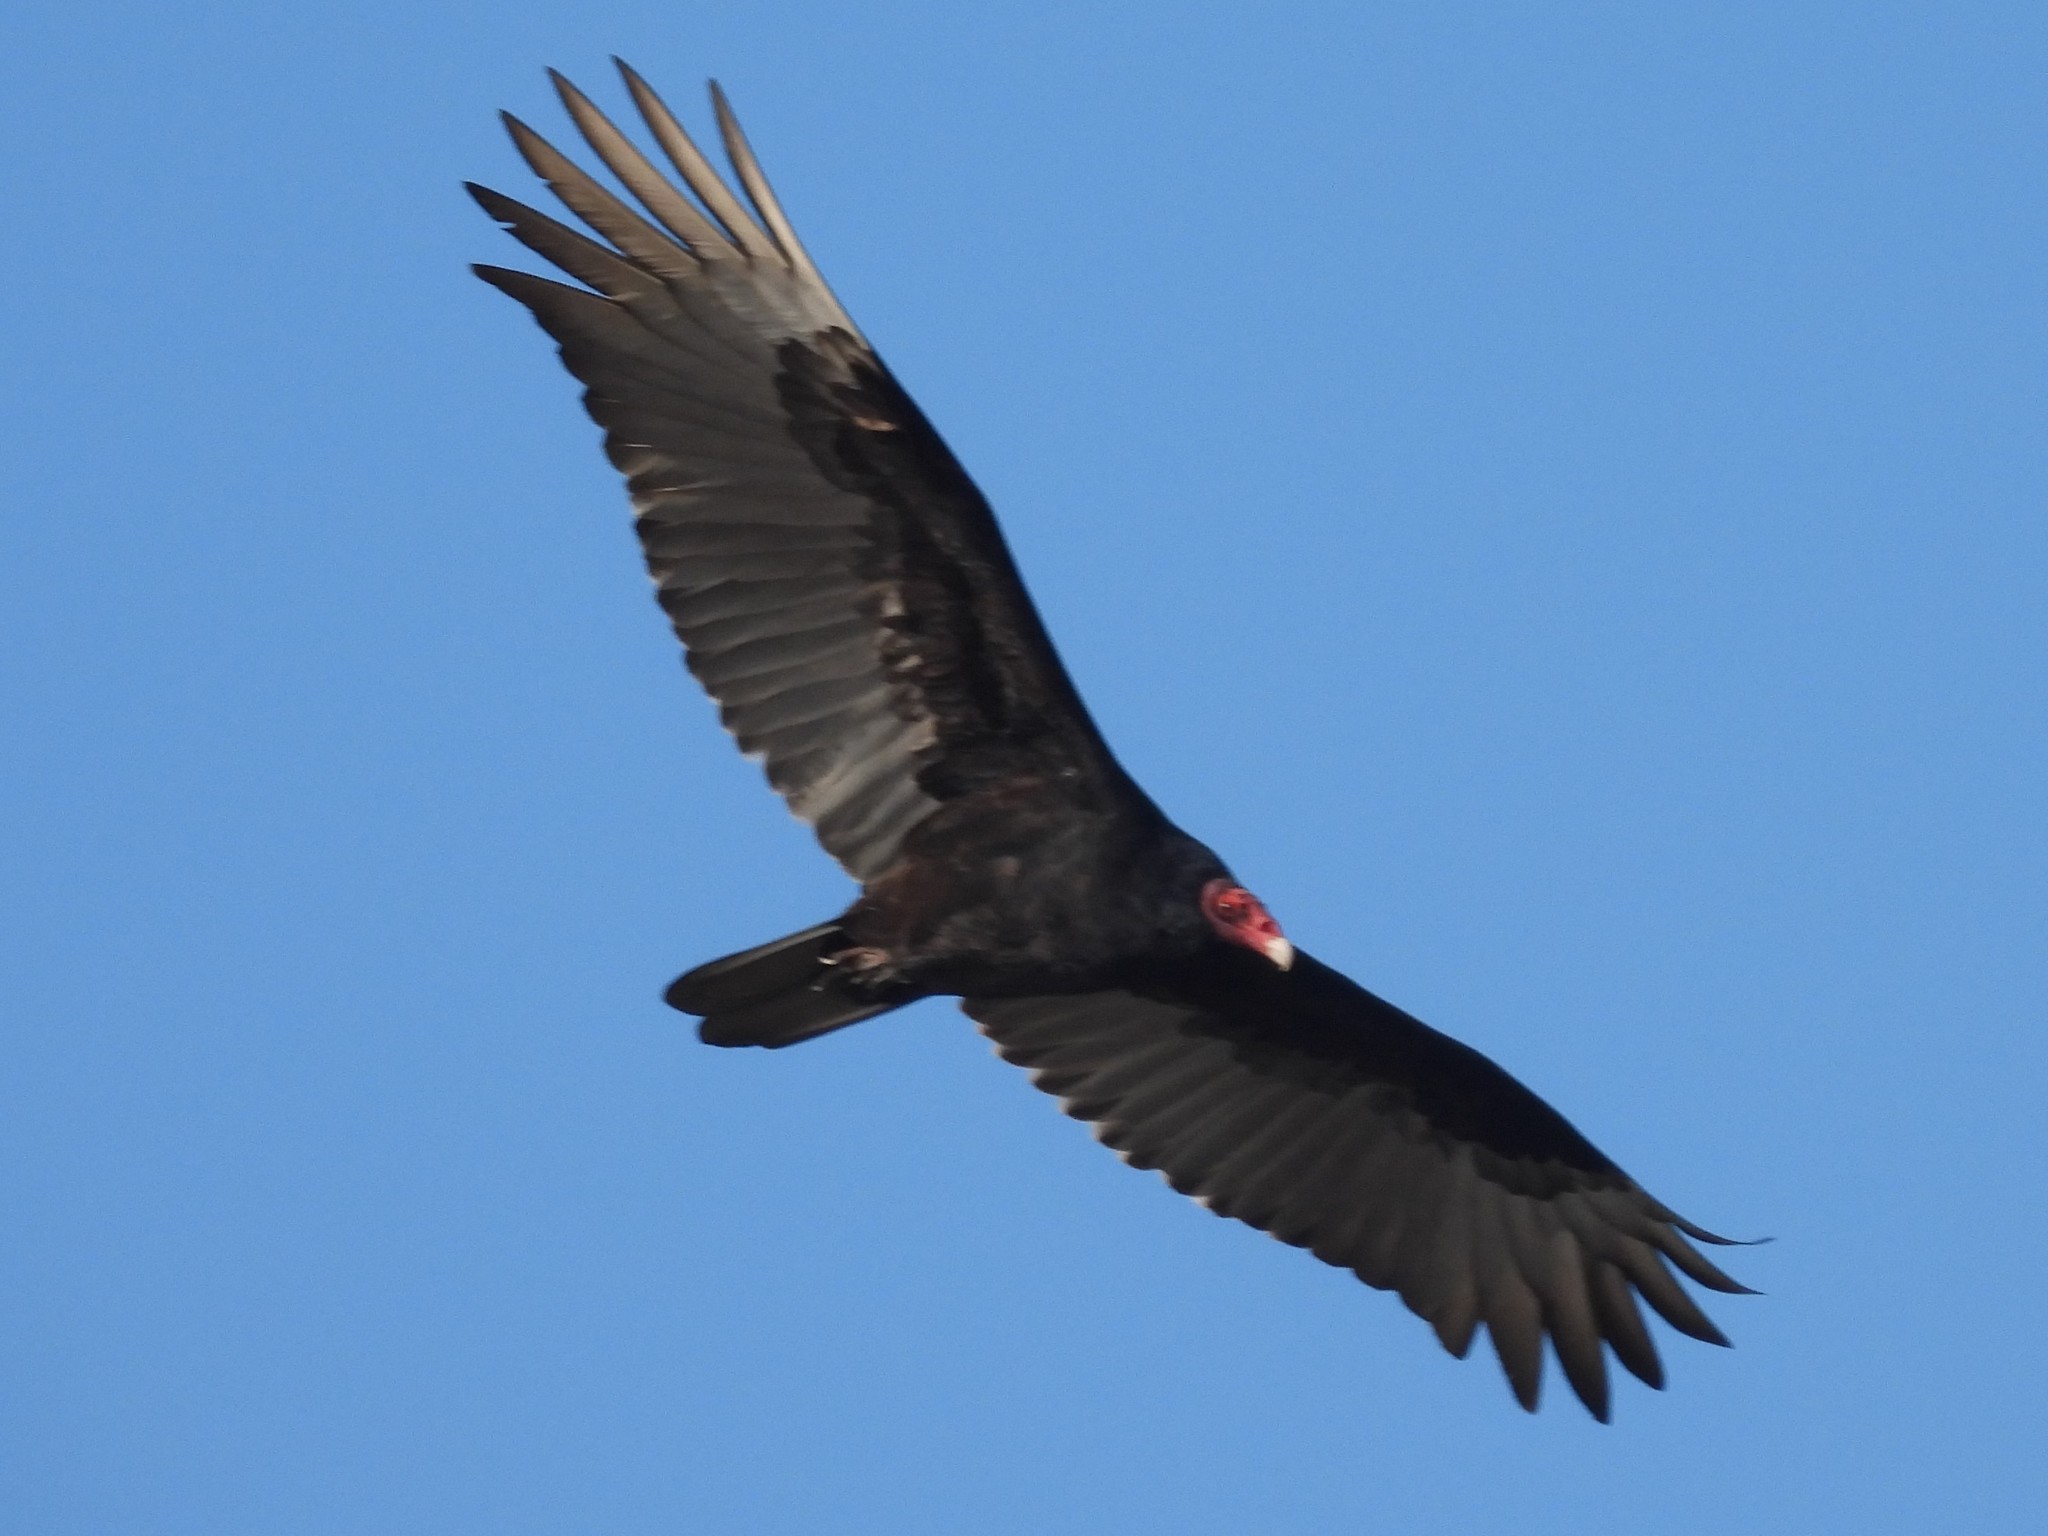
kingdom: Animalia
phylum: Chordata
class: Aves
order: Accipitriformes
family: Cathartidae
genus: Cathartes
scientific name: Cathartes aura
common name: Turkey vulture
